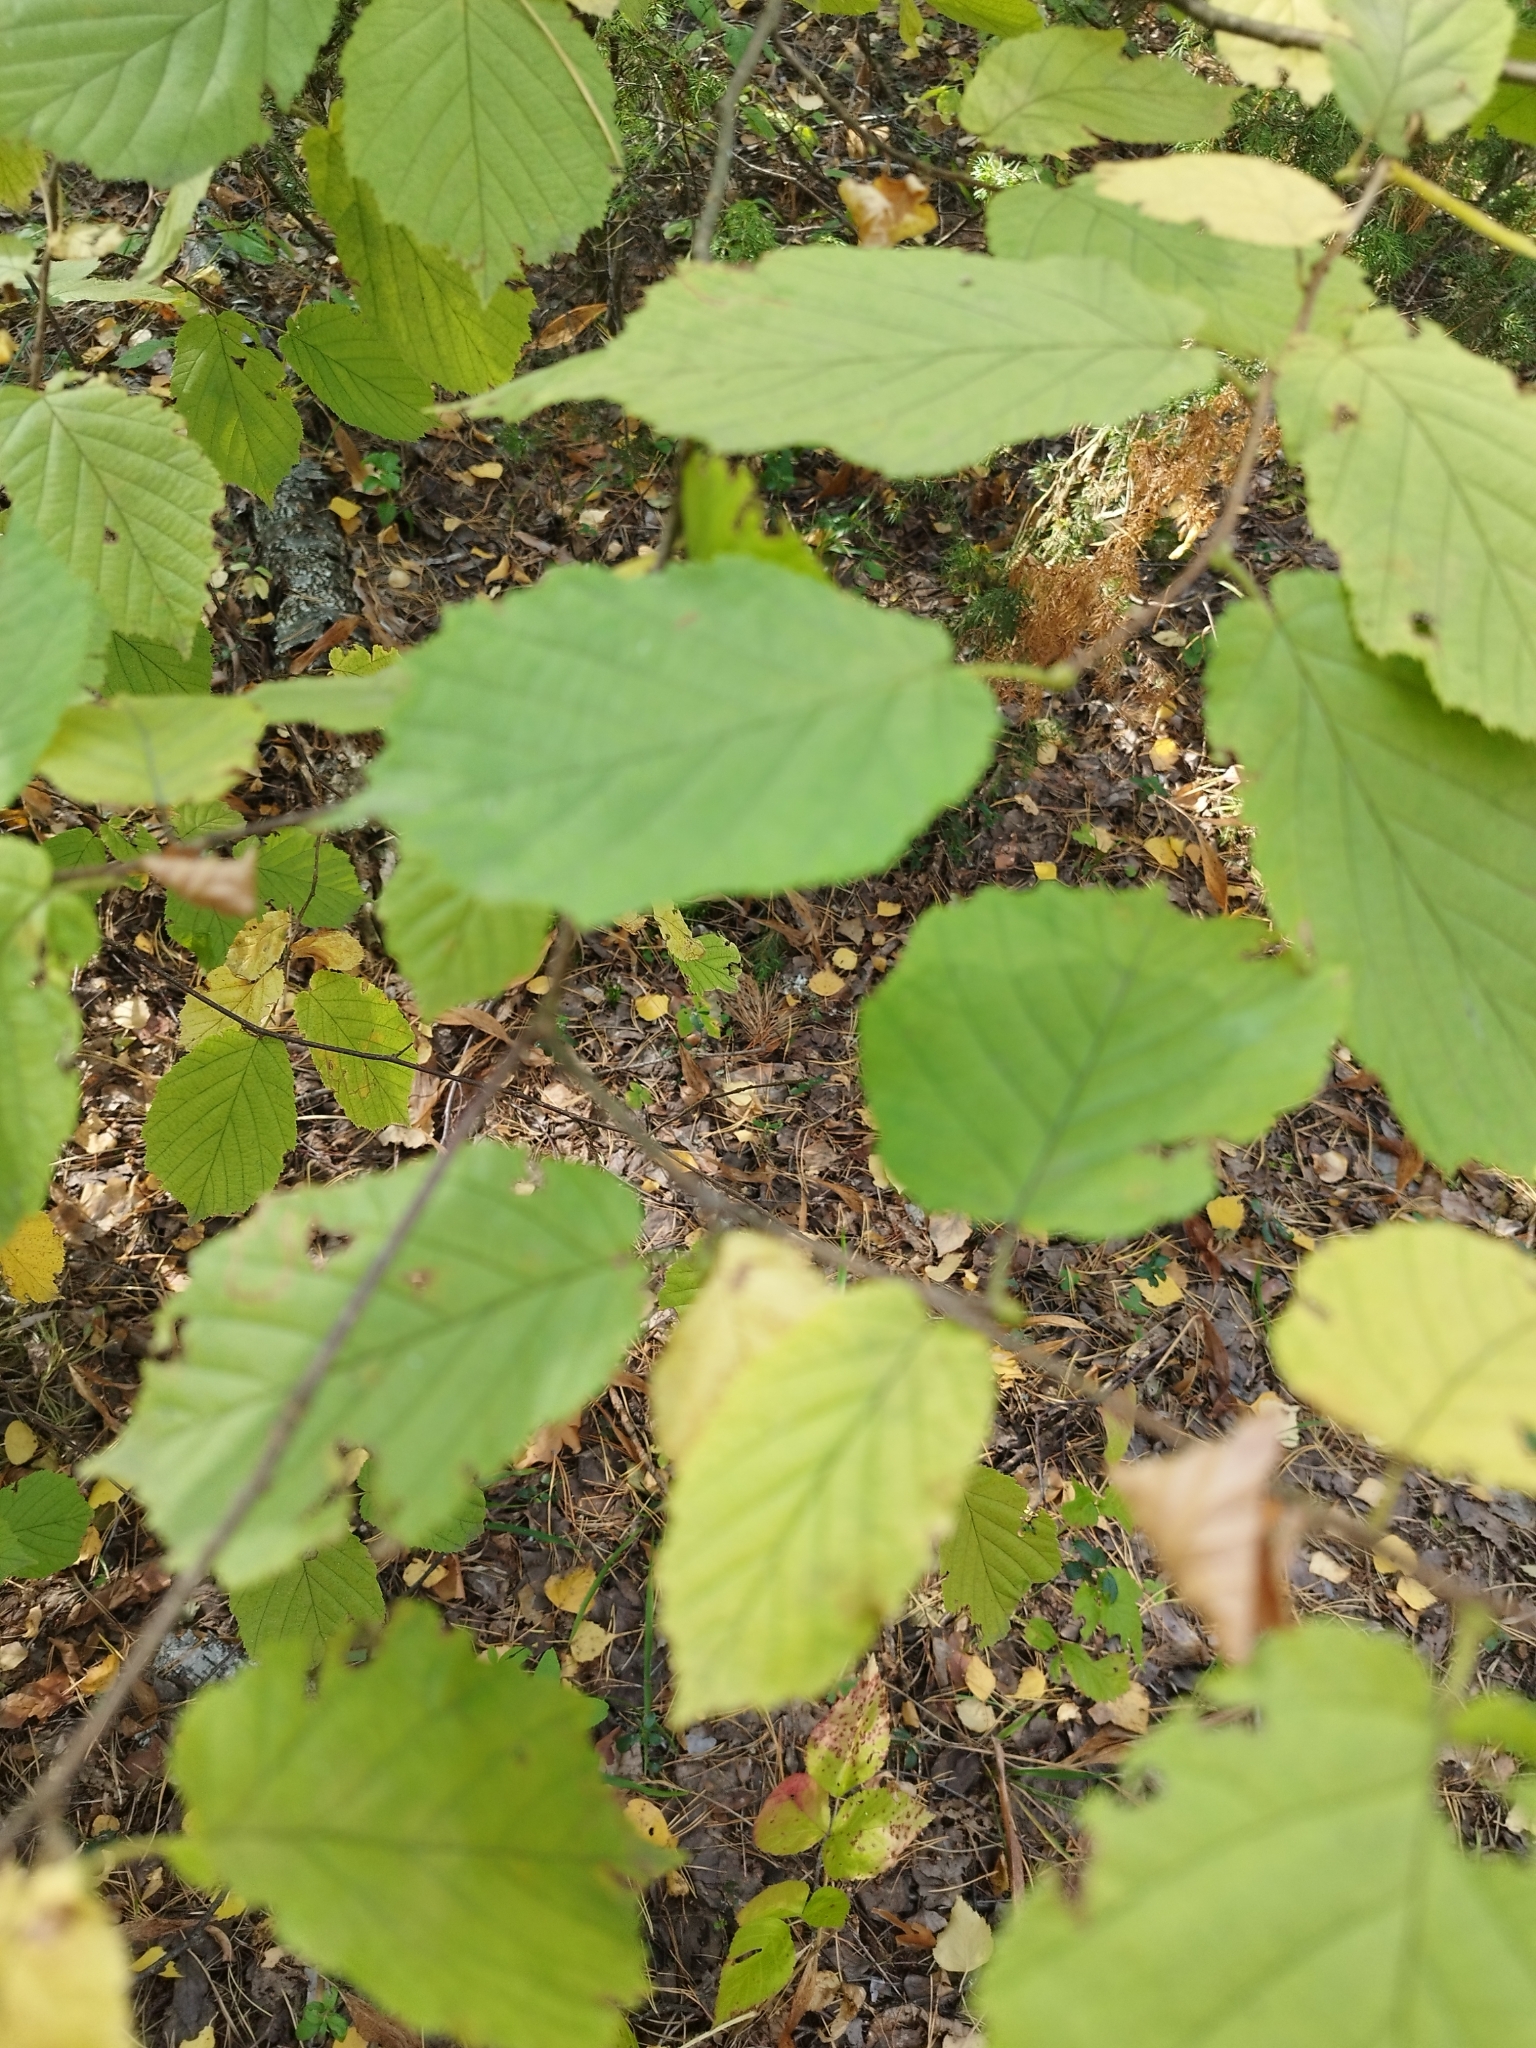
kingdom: Plantae
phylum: Tracheophyta
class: Magnoliopsida
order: Fagales
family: Betulaceae
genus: Corylus
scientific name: Corylus avellana
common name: European hazel
